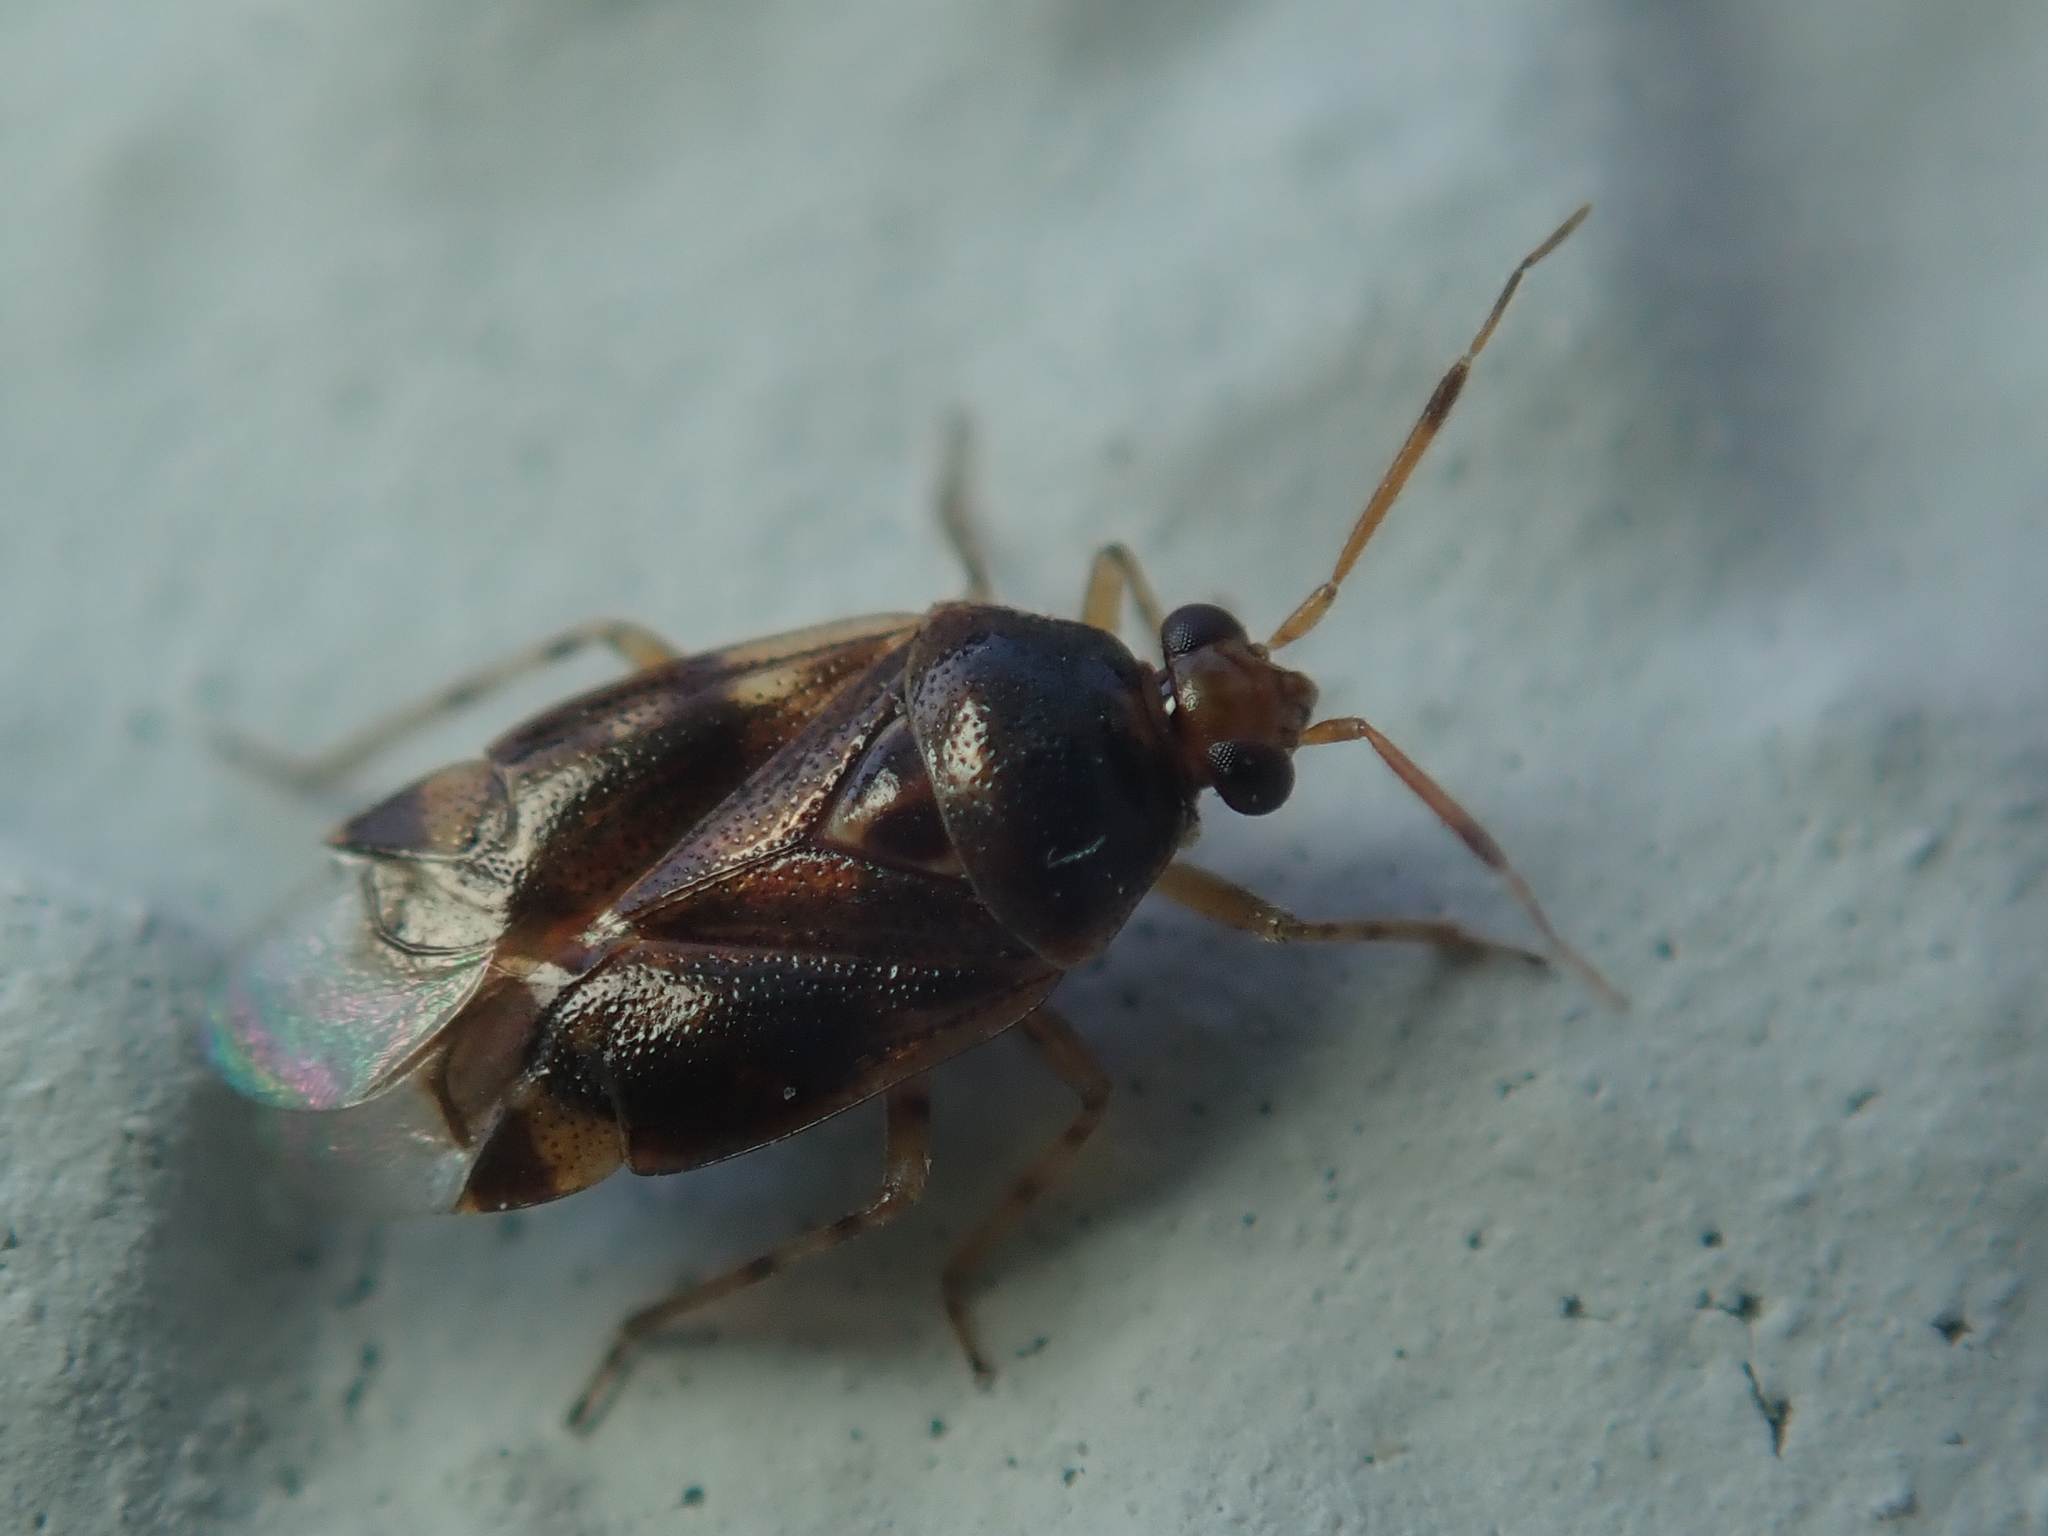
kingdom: Animalia
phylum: Arthropoda
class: Insecta
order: Hemiptera
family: Miridae
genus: Deraeocoris
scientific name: Deraeocoris lutescens
